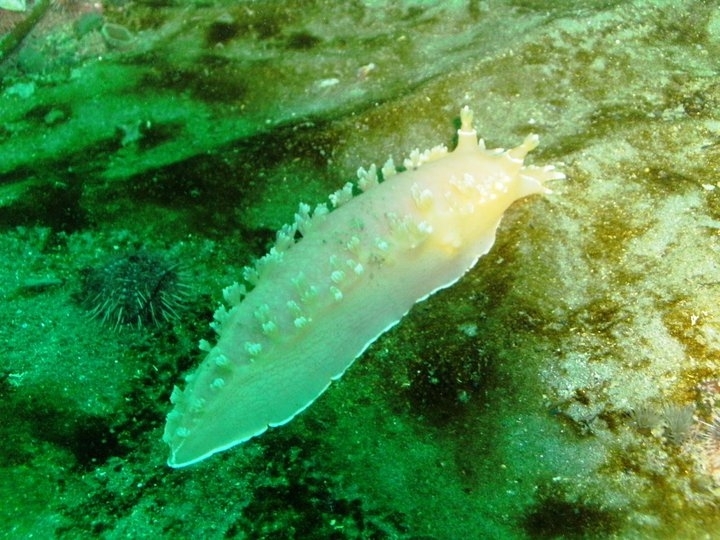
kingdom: Animalia
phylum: Mollusca
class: Gastropoda
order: Nudibranchia
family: Tritoniidae
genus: Tritonia
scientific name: Tritonia challengeriana
